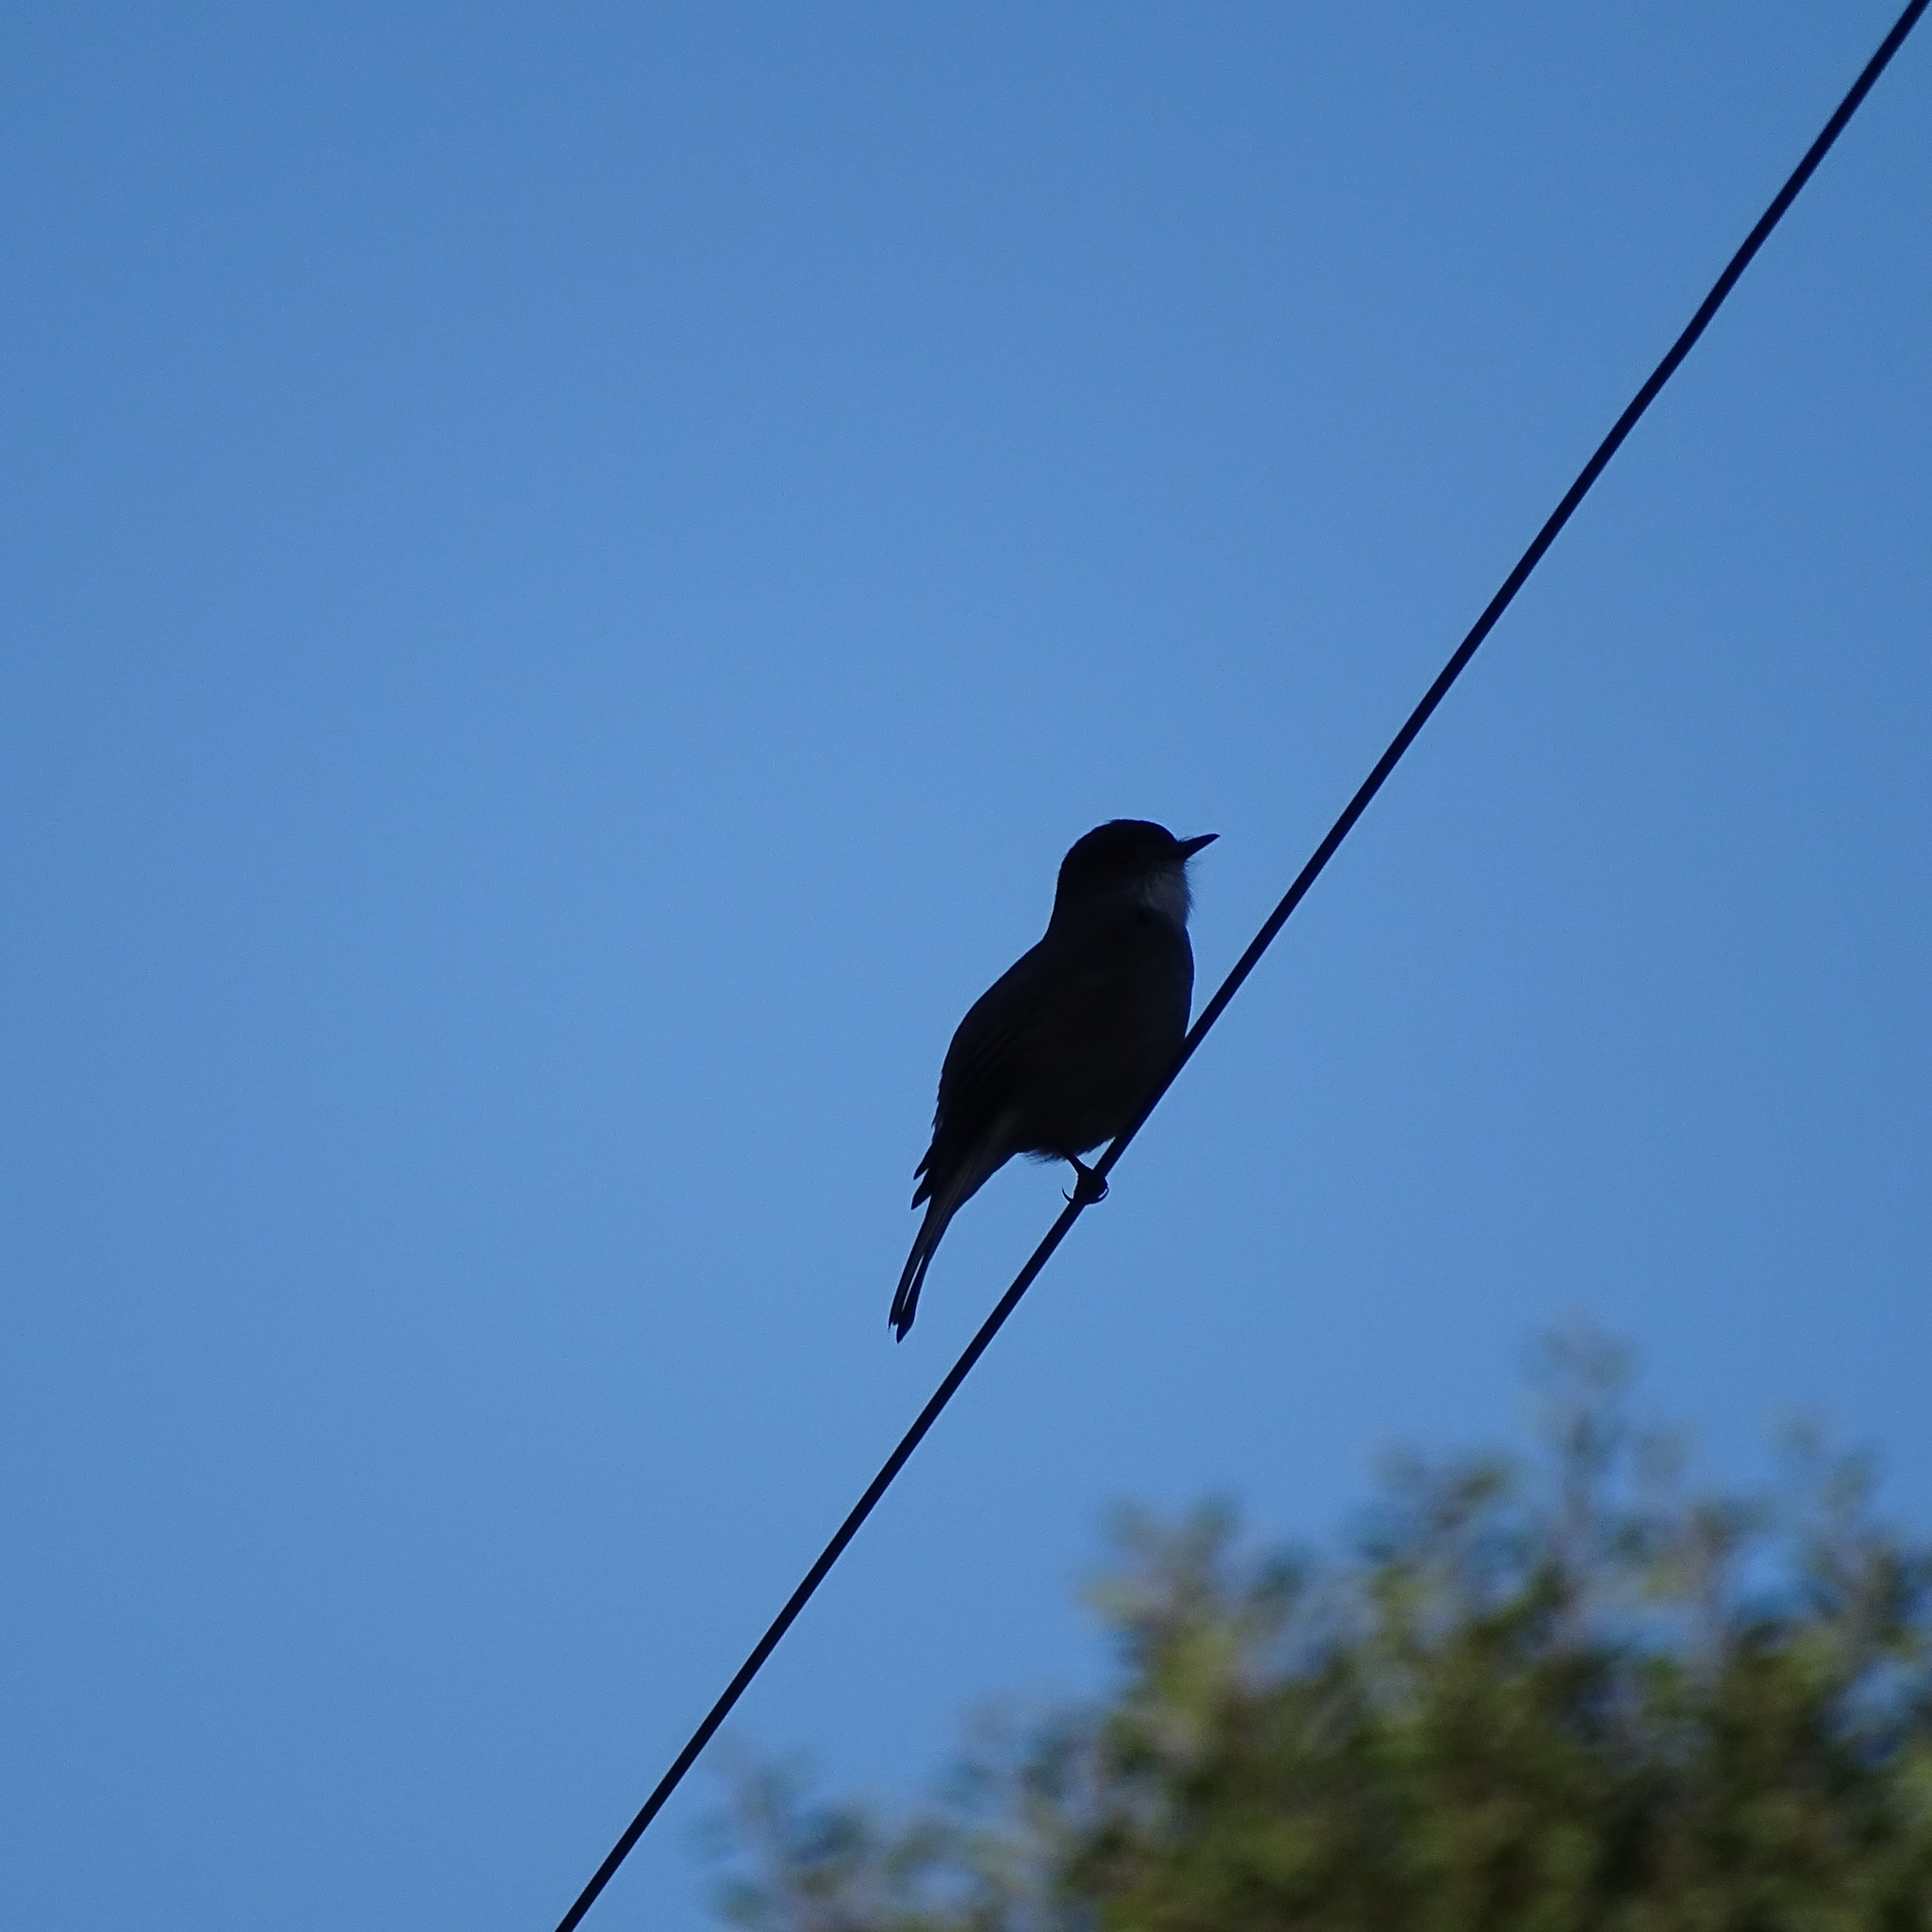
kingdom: Animalia
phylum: Chordata
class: Aves
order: Passeriformes
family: Tyrannidae
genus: Xolmis
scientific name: Xolmis pyrope
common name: Fire-eyed diucon
